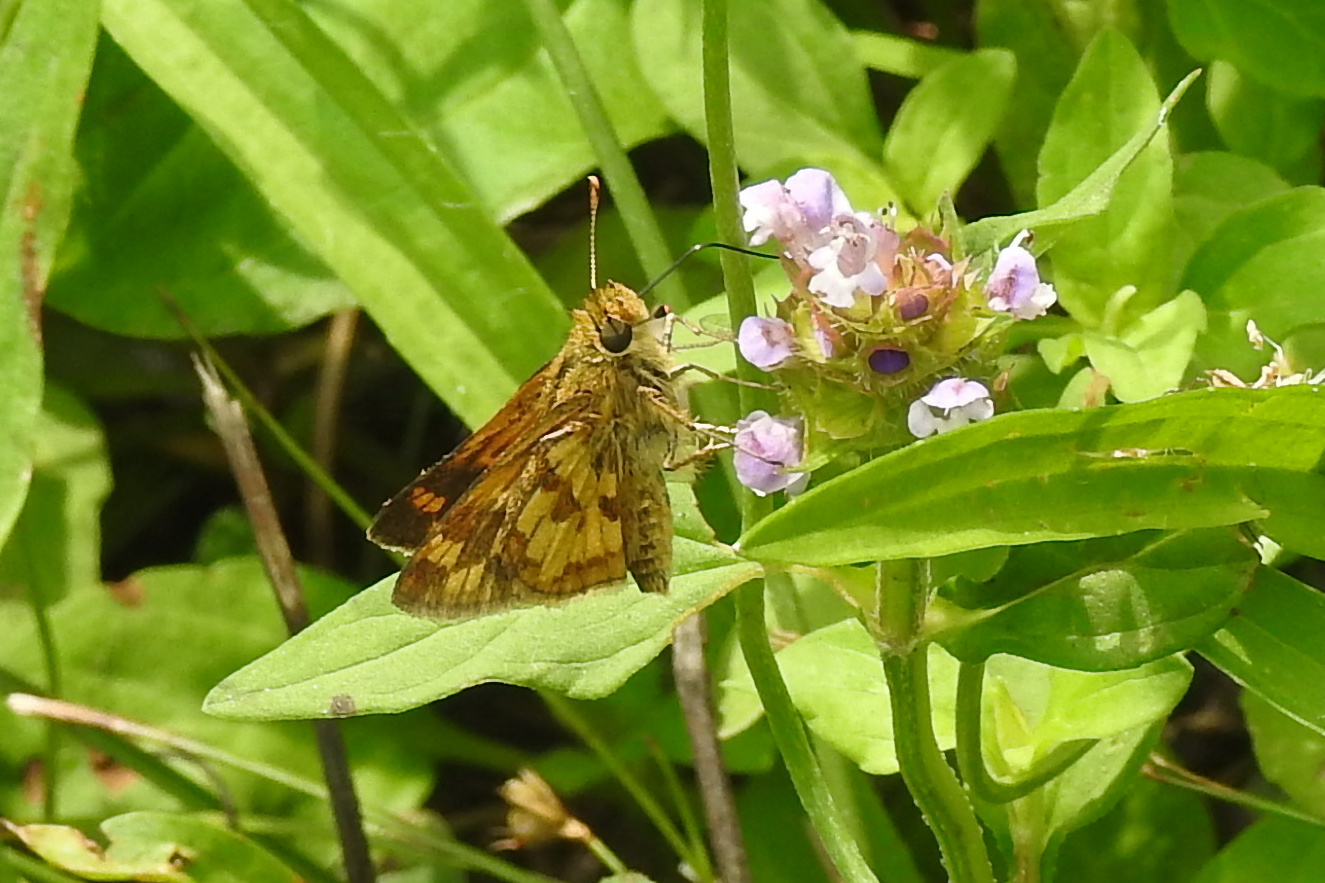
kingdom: Animalia
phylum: Arthropoda
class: Insecta
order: Lepidoptera
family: Hesperiidae
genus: Polites
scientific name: Polites coras
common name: Peck's skipper
